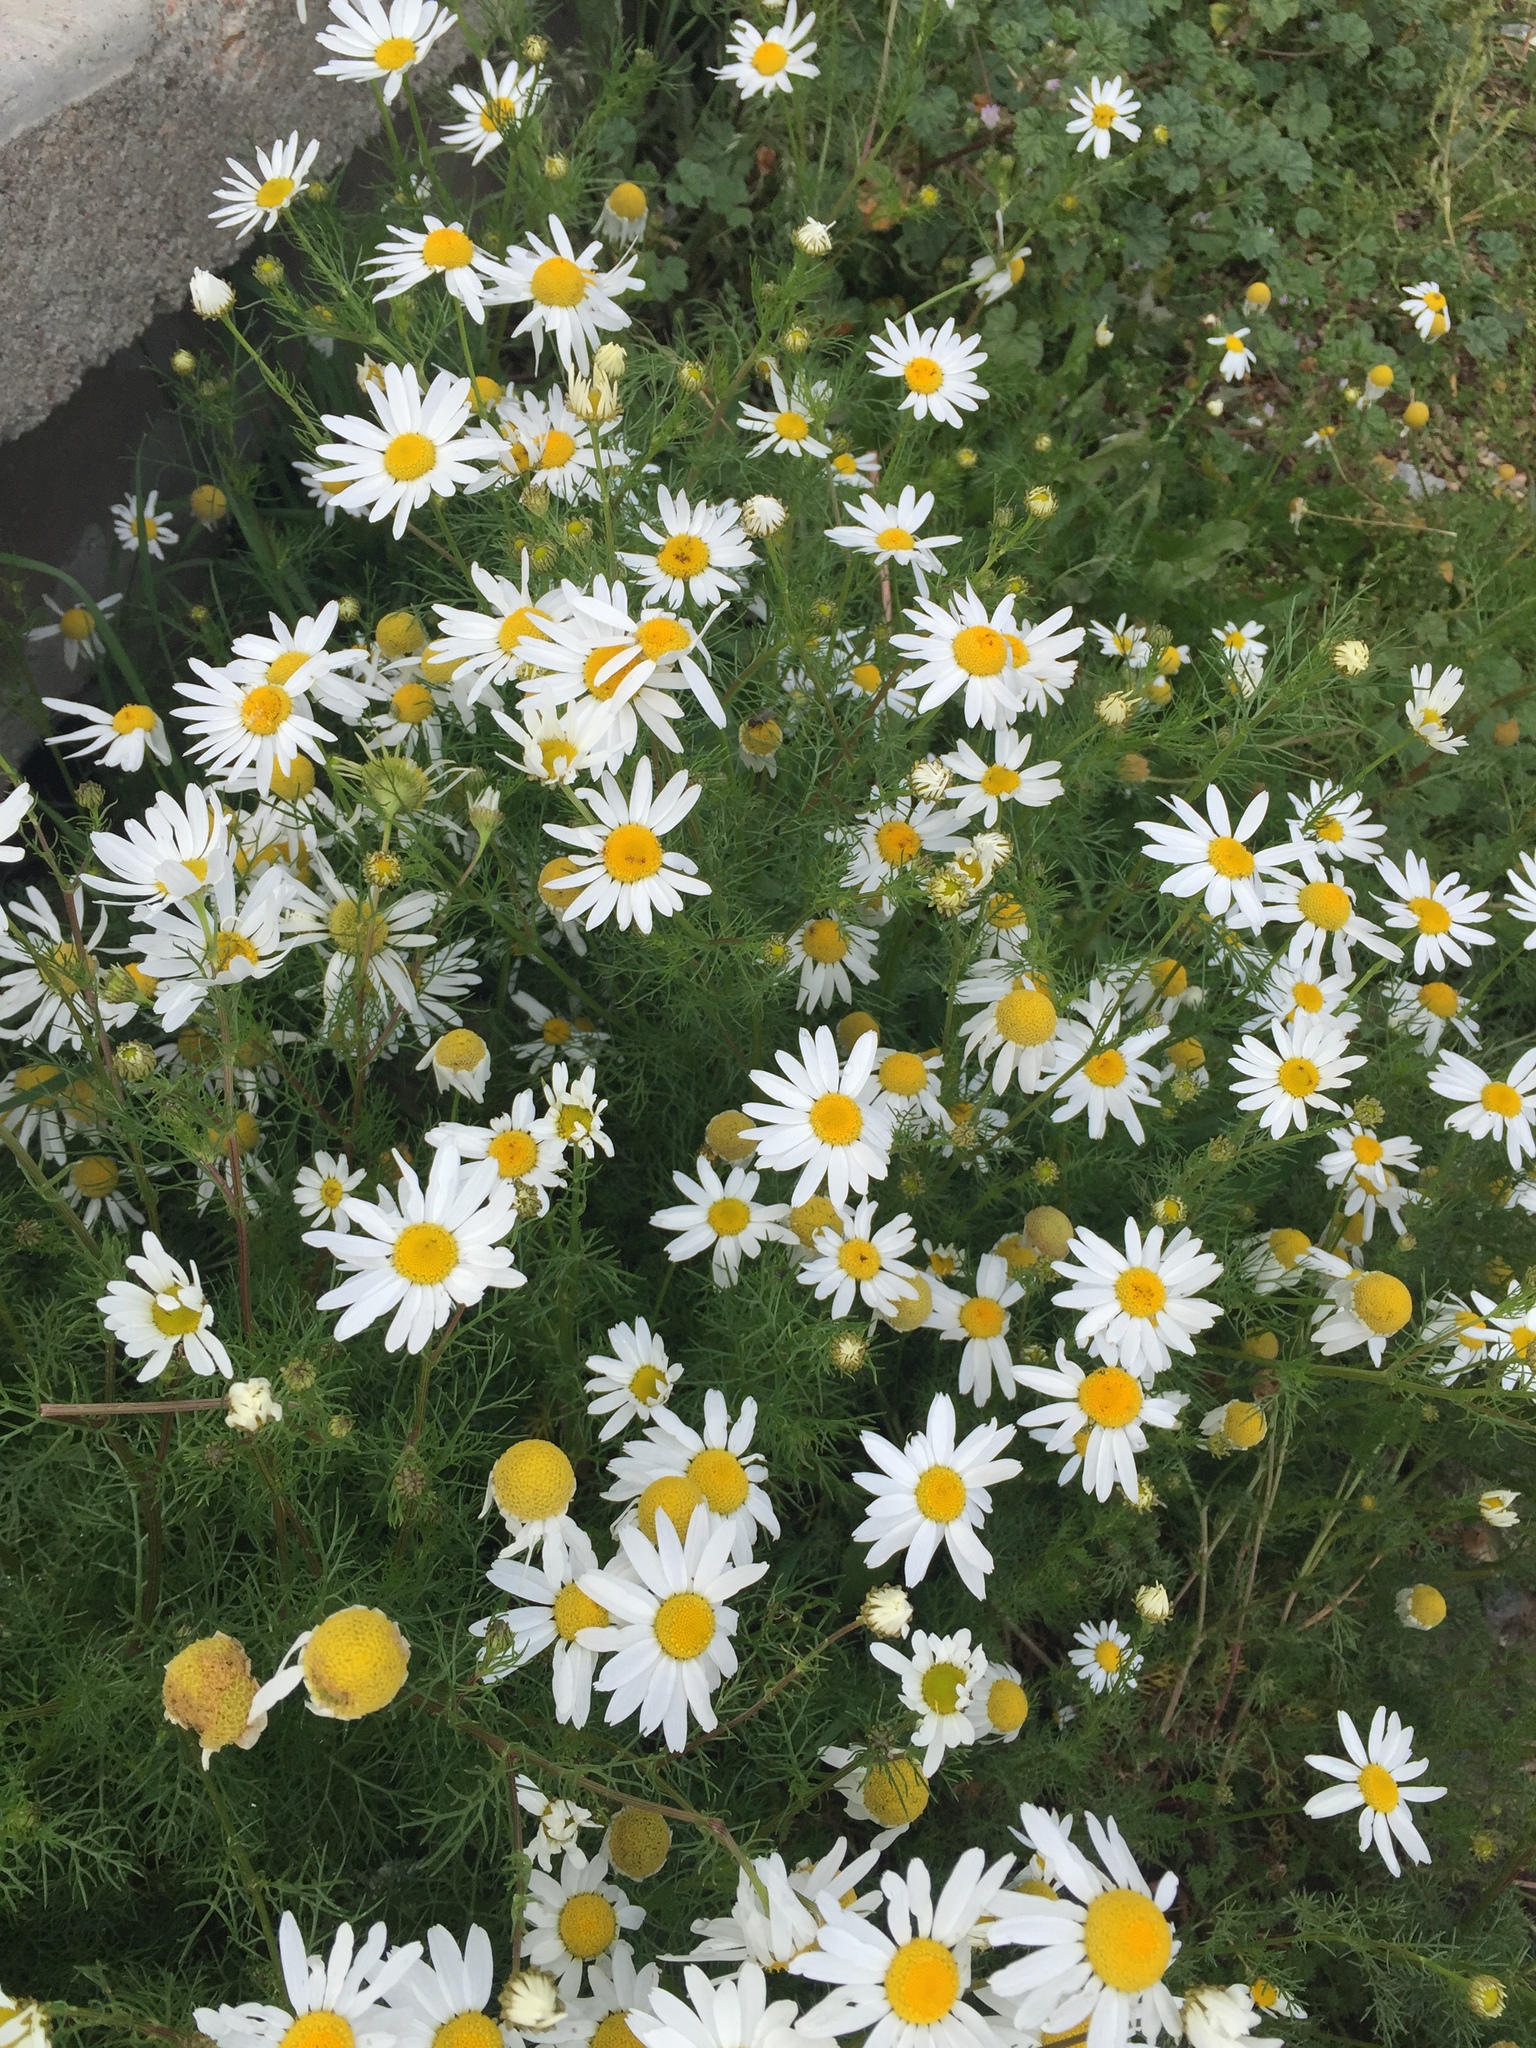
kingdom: Plantae
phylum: Tracheophyta
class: Magnoliopsida
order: Asterales
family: Asteraceae
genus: Tripleurospermum
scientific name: Tripleurospermum inodorum
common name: Scentless mayweed
